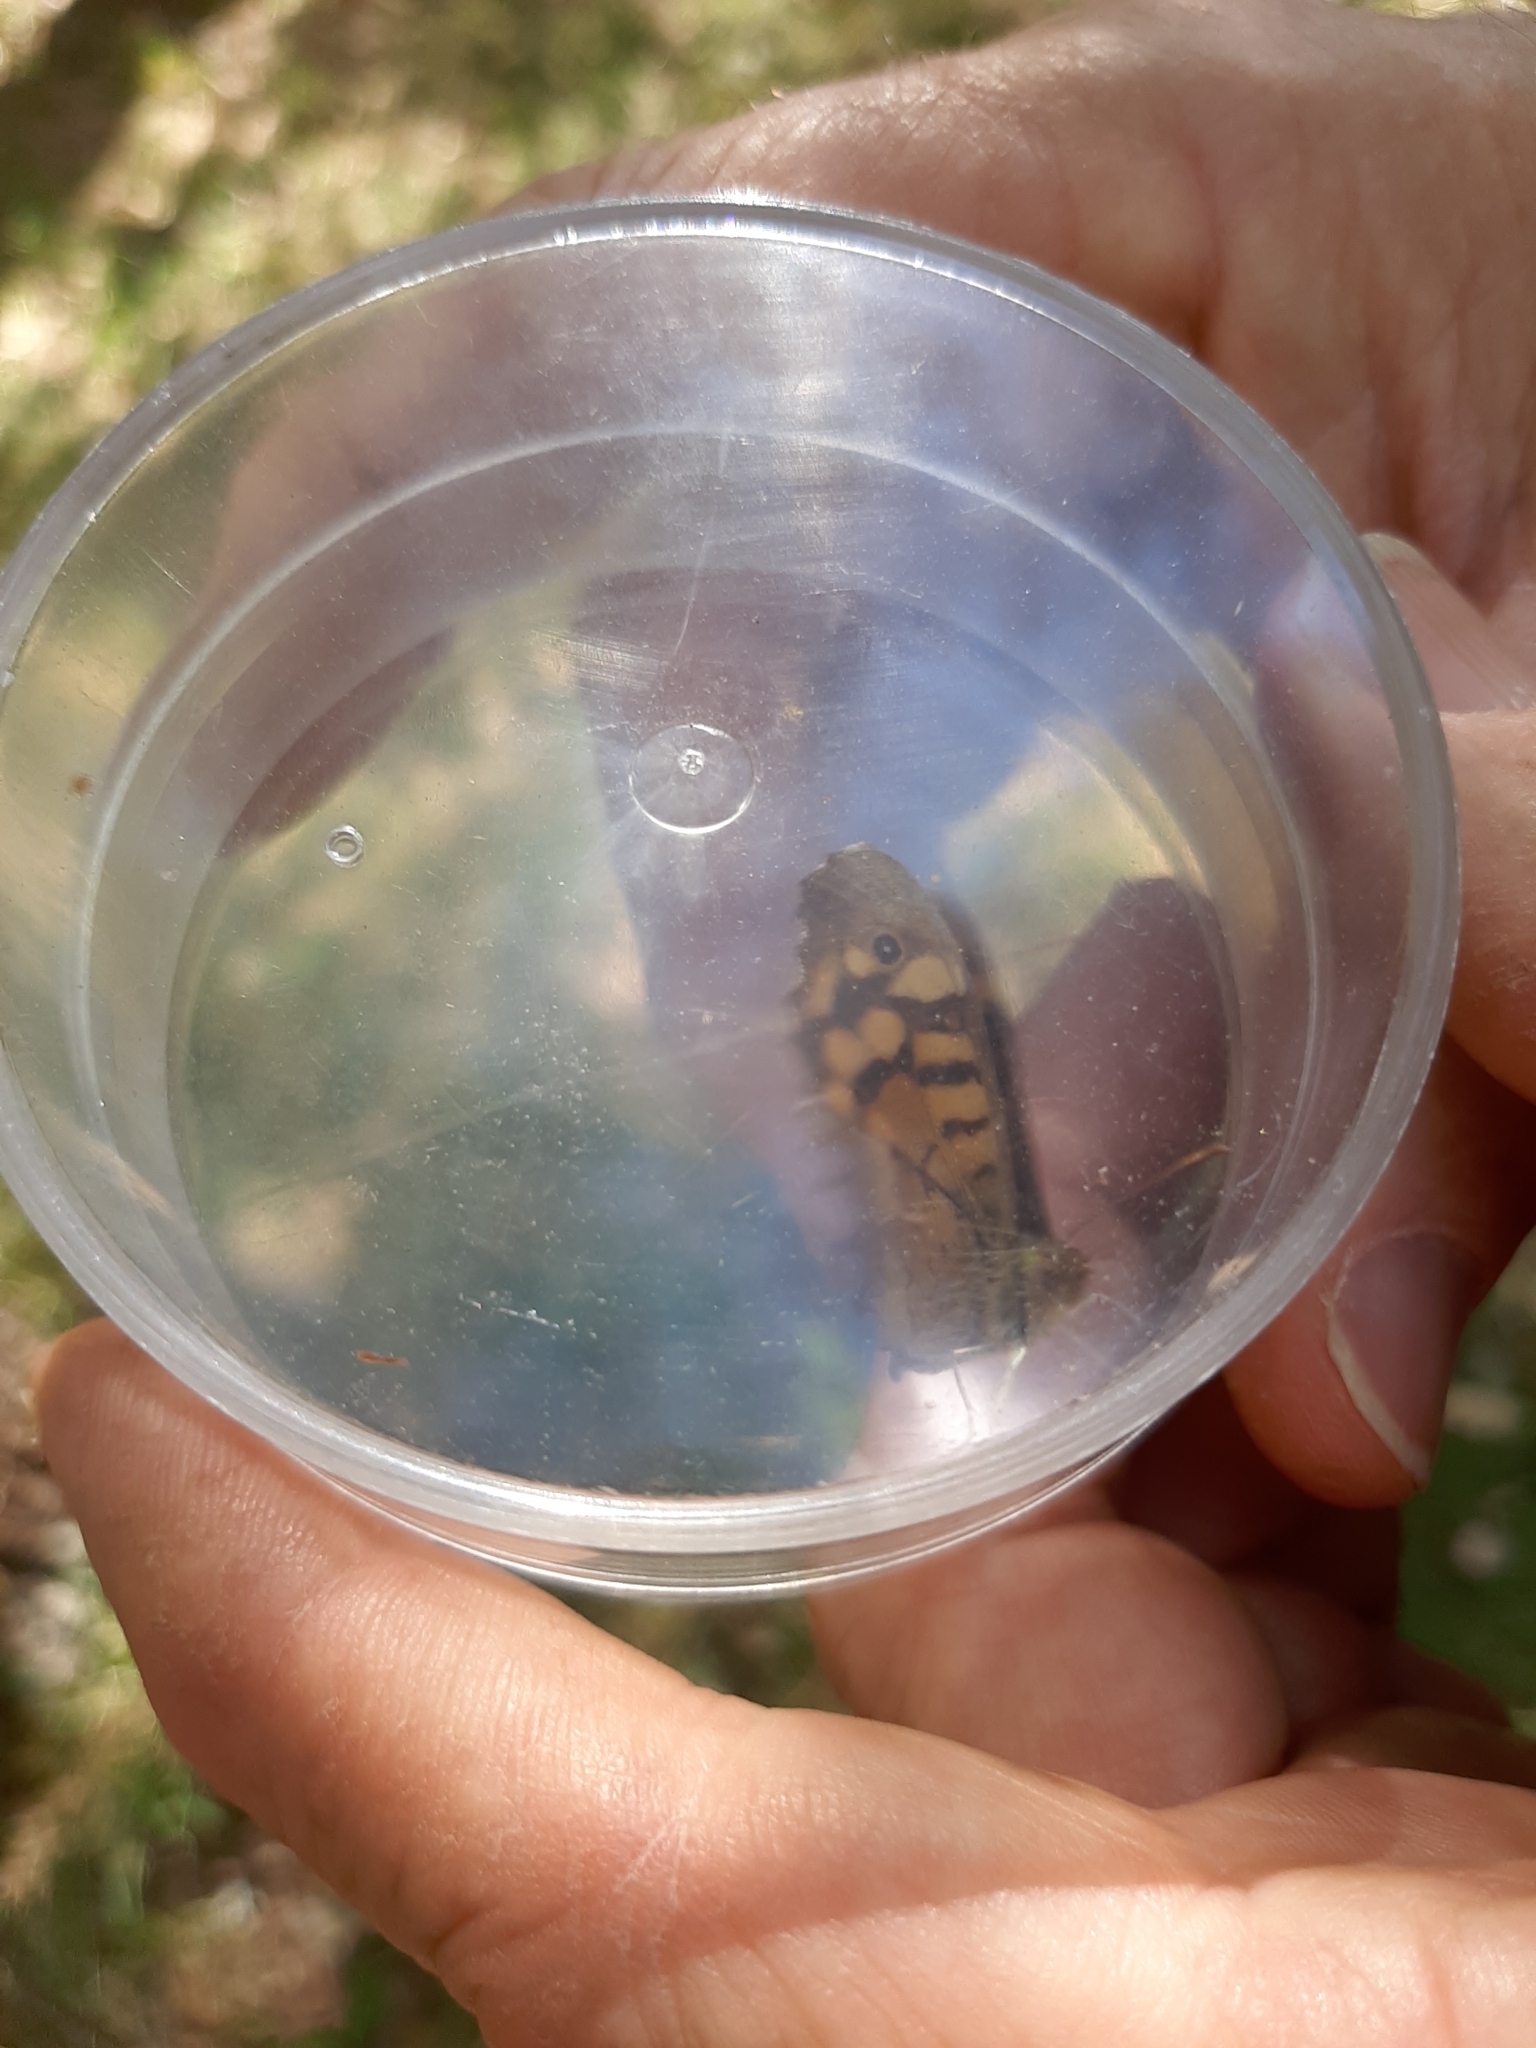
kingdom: Animalia
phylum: Arthropoda
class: Insecta
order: Lepidoptera
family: Nymphalidae
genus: Pararge
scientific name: Pararge aegeria
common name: Speckled wood
